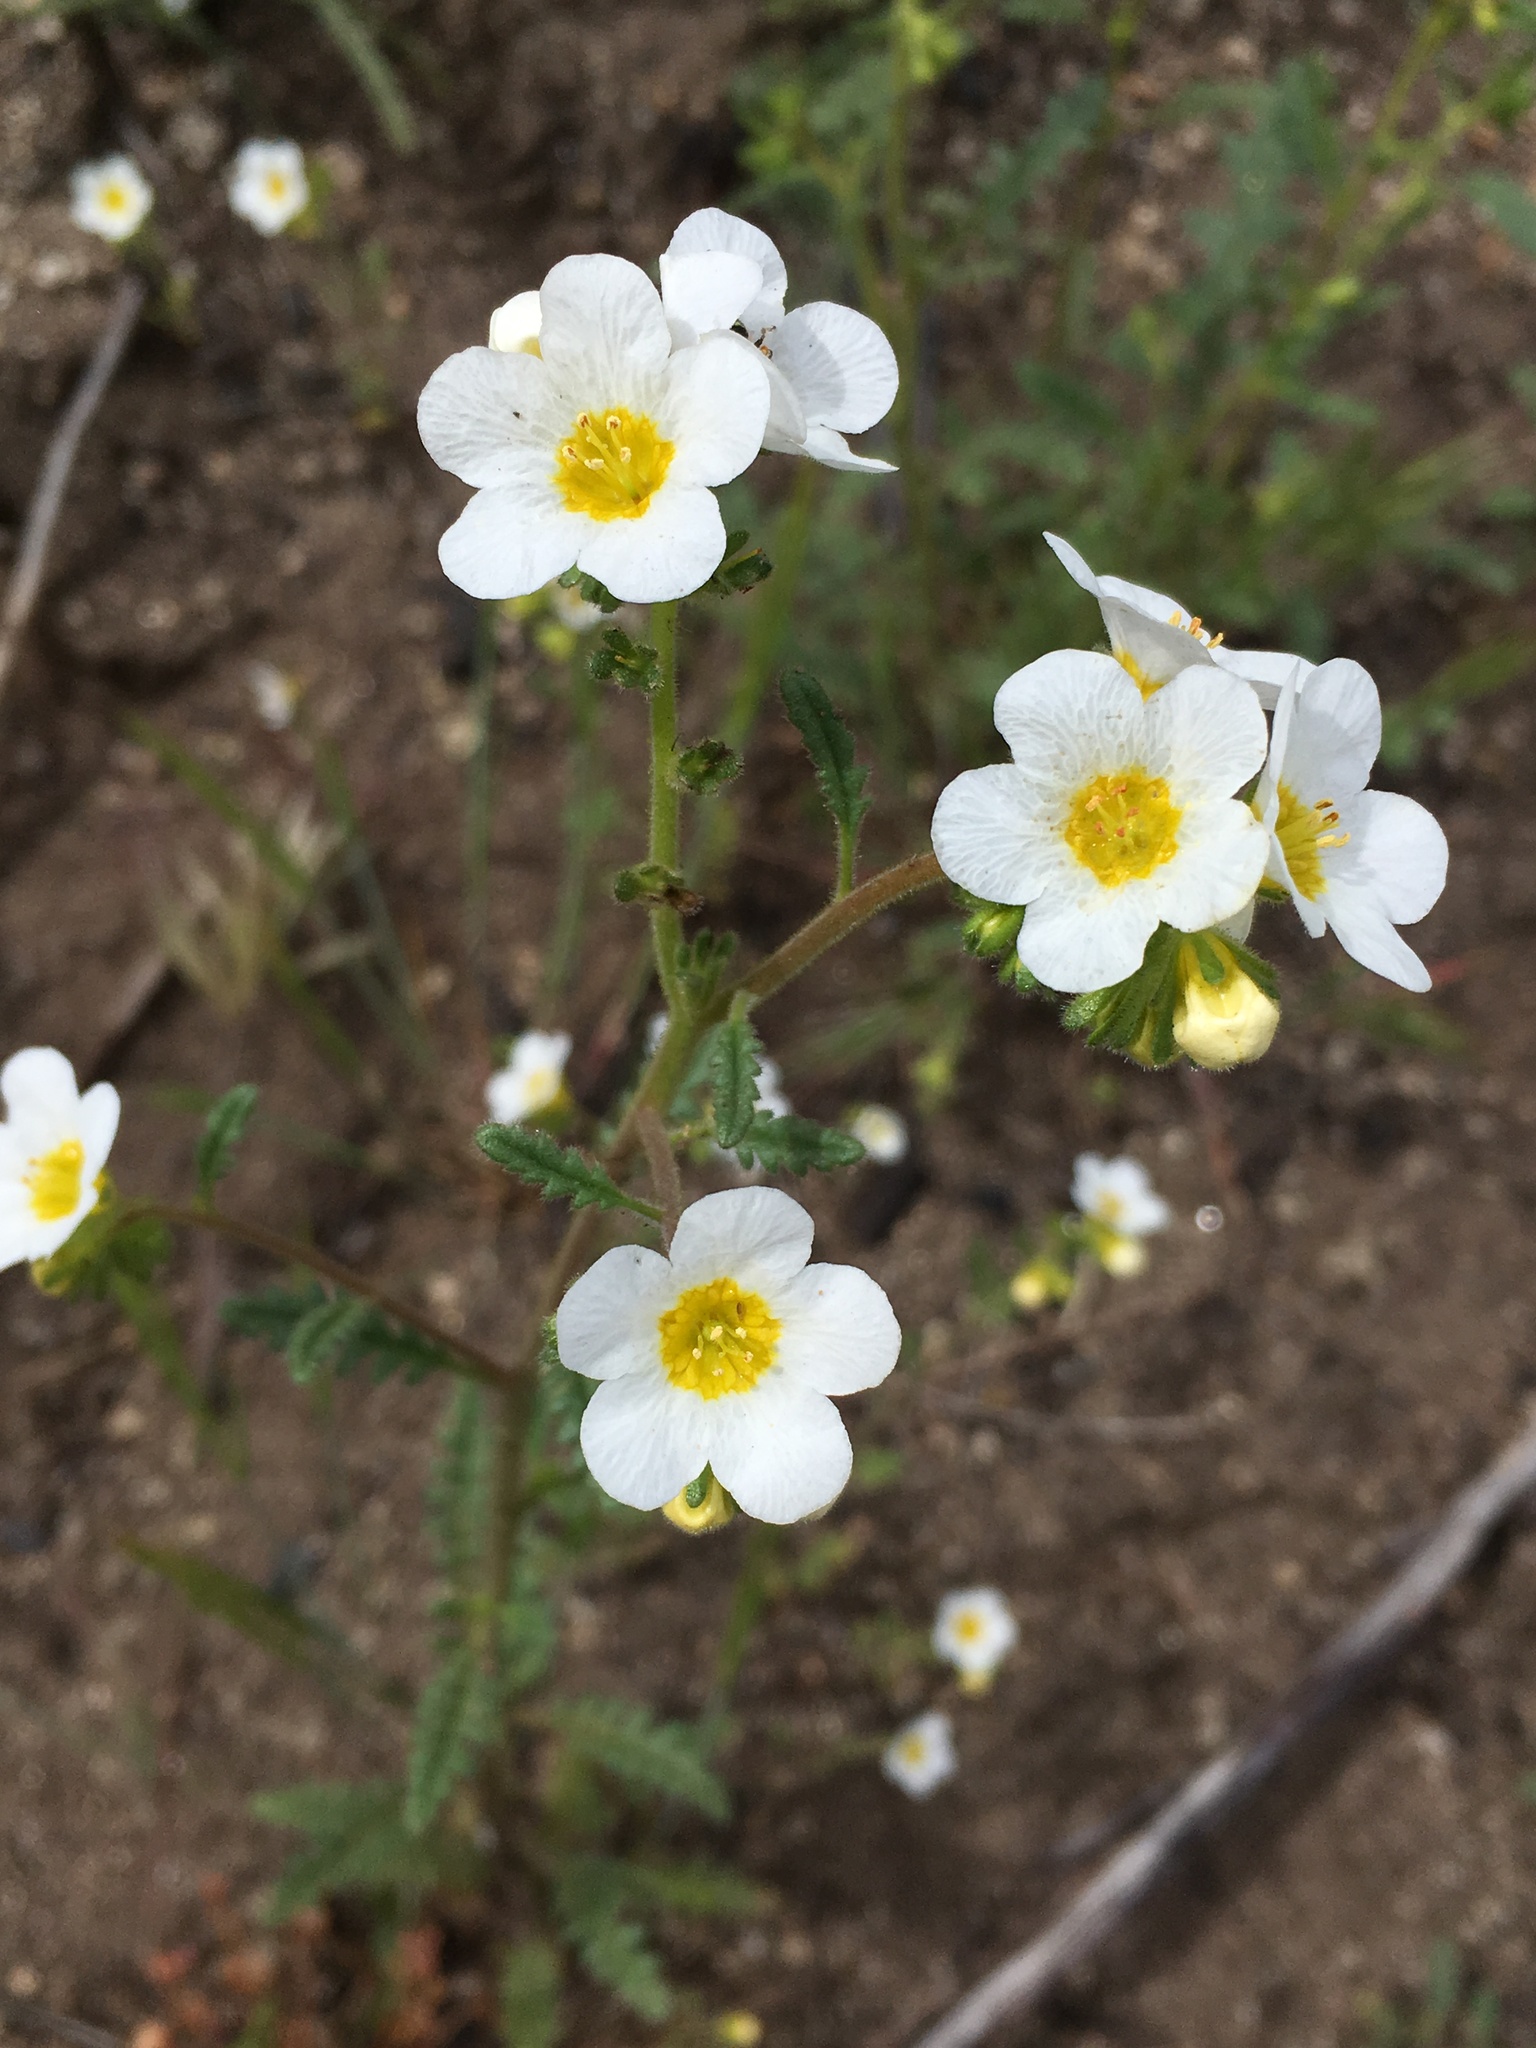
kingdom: Plantae
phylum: Tracheophyta
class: Magnoliopsida
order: Boraginales
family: Hydrophyllaceae
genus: Phacelia
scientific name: Phacelia brachyloba
